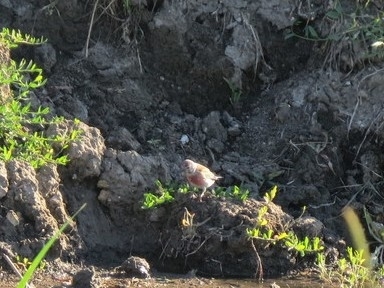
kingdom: Animalia
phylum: Chordata
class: Aves
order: Passeriformes
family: Fringillidae
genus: Linaria
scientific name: Linaria cannabina
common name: Common linnet
